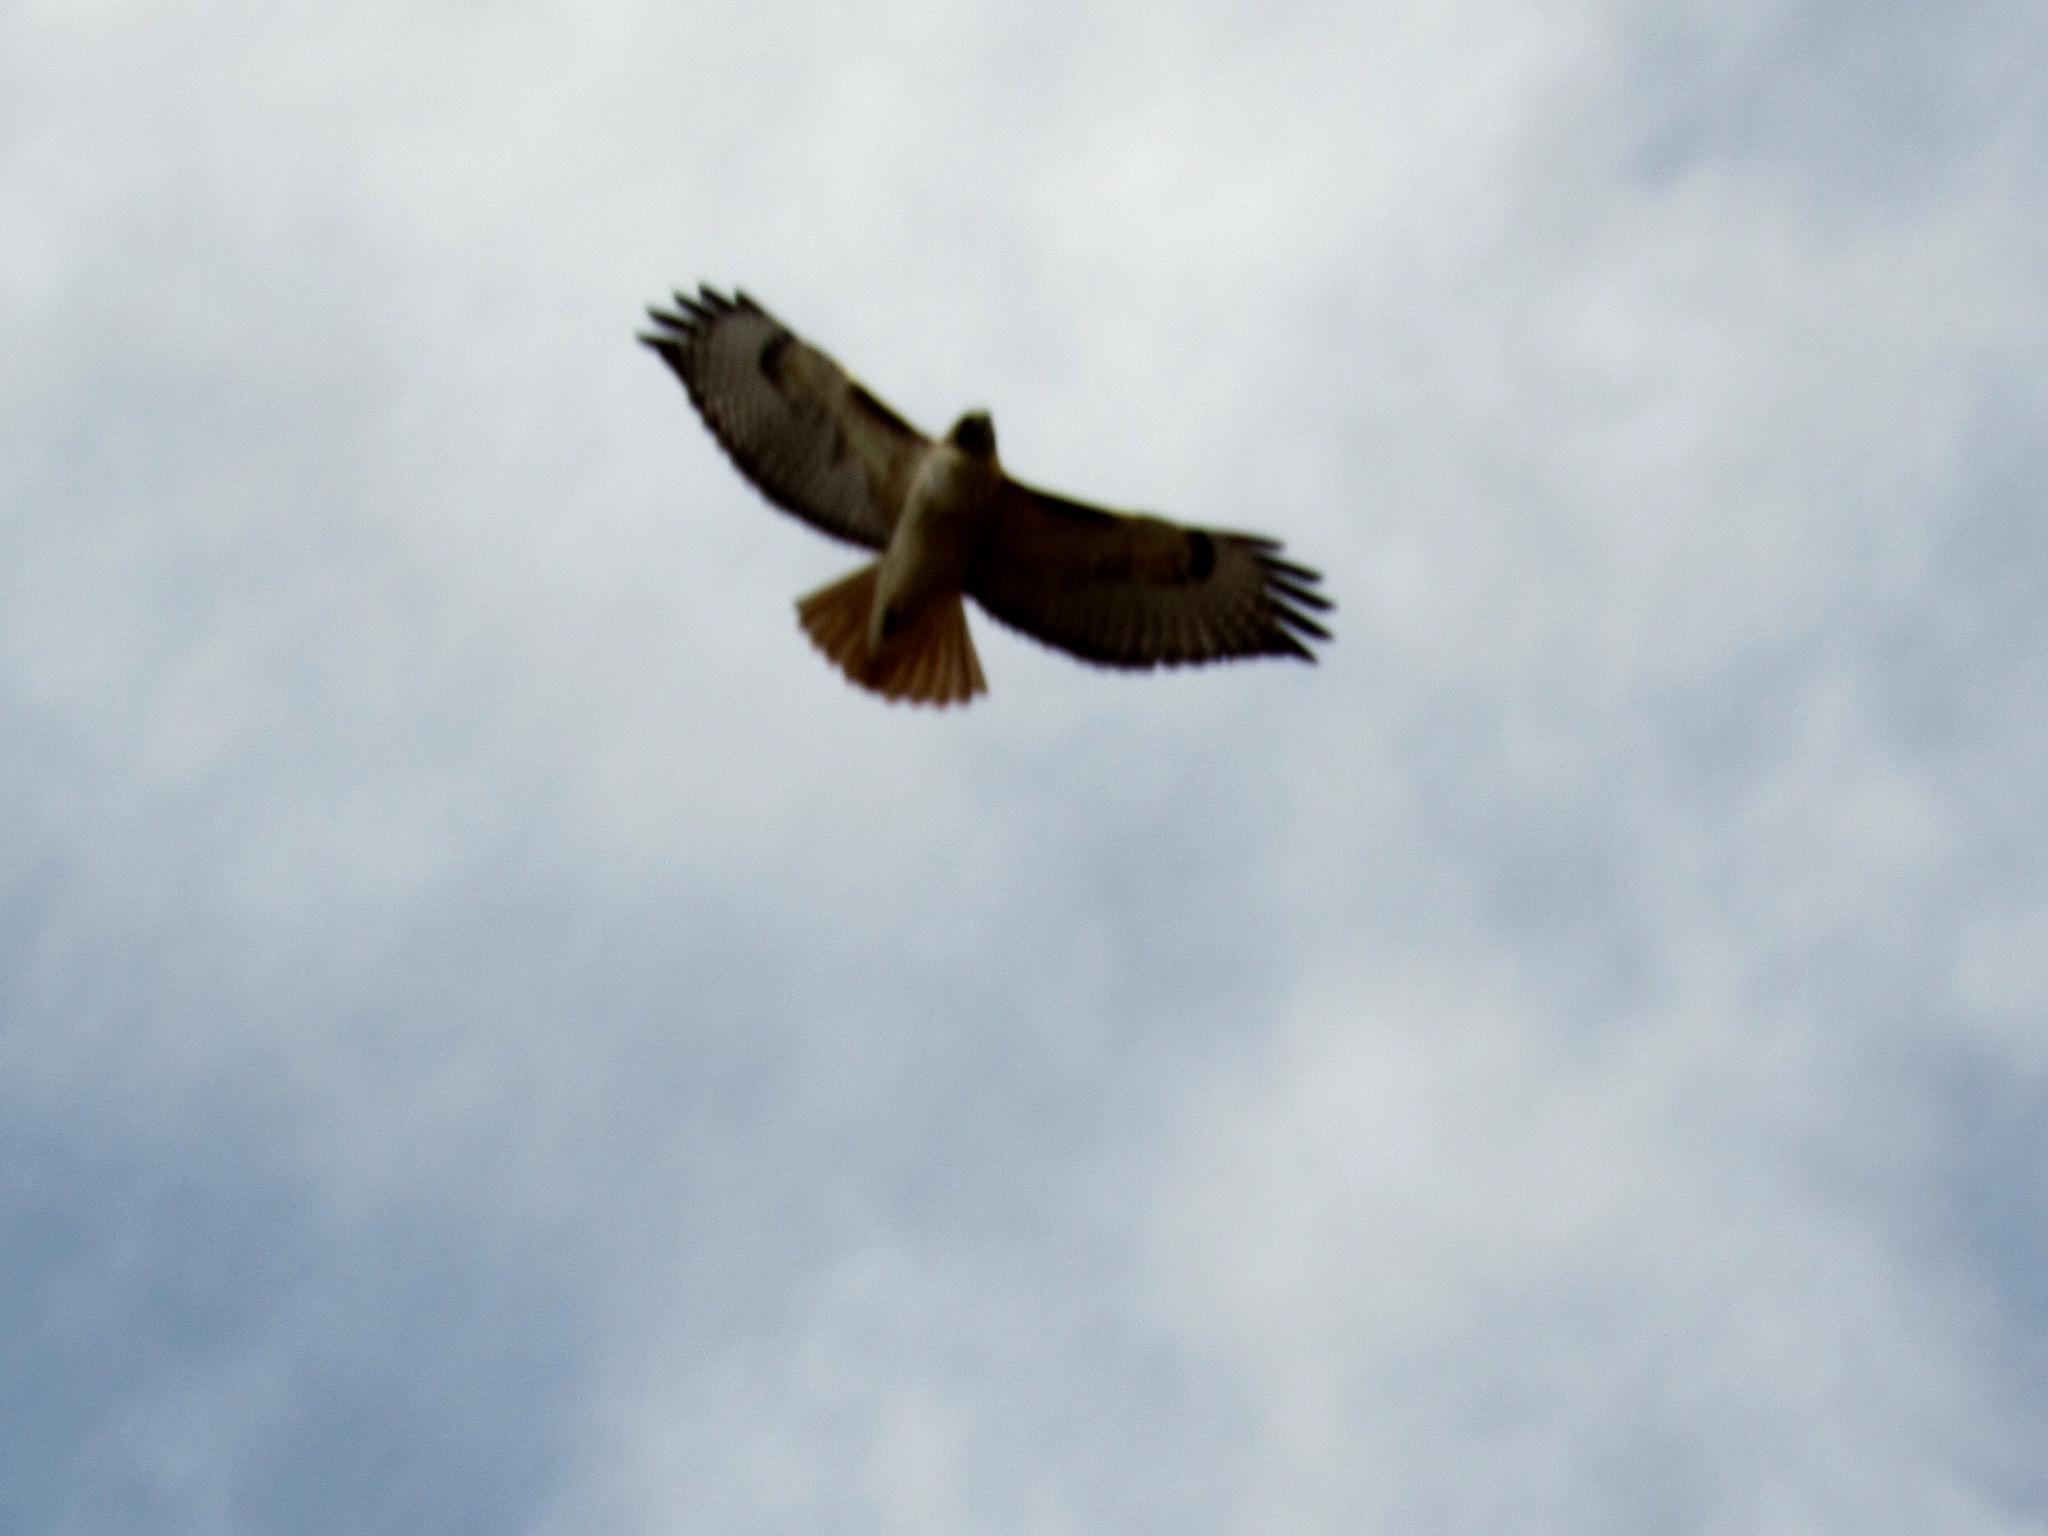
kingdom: Animalia
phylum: Chordata
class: Aves
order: Accipitriformes
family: Accipitridae
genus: Buteo
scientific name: Buteo jamaicensis
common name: Red-tailed hawk
